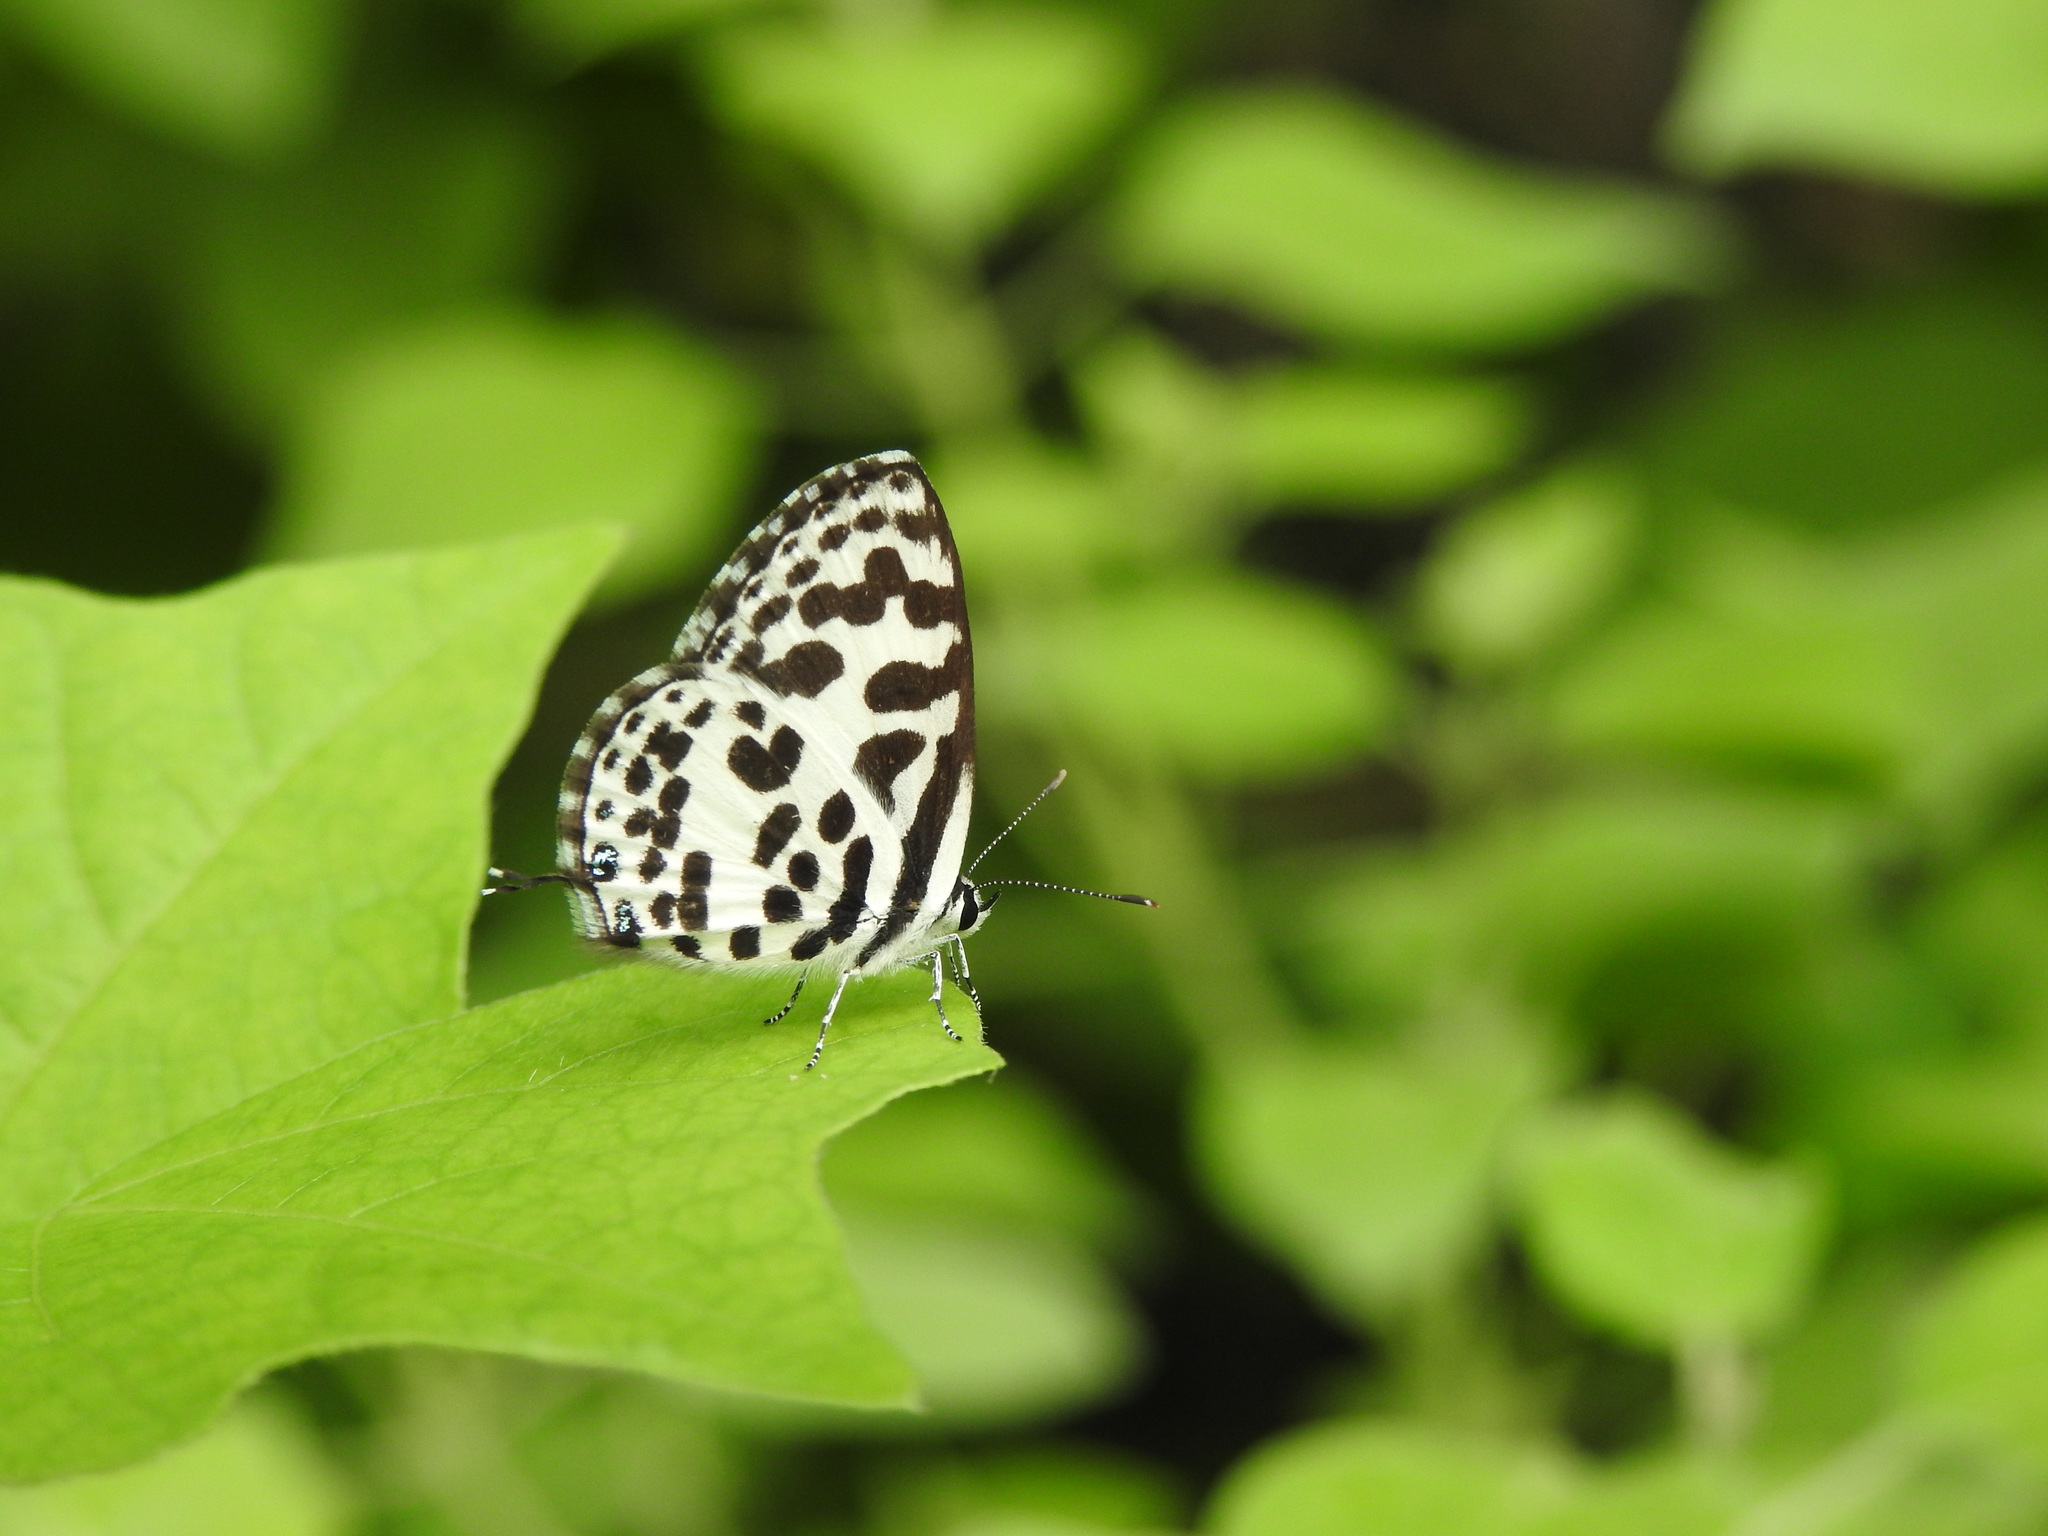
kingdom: Animalia
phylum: Arthropoda
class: Insecta
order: Lepidoptera
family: Lycaenidae
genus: Castalius
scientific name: Castalius rosimon
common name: Common pierrot
